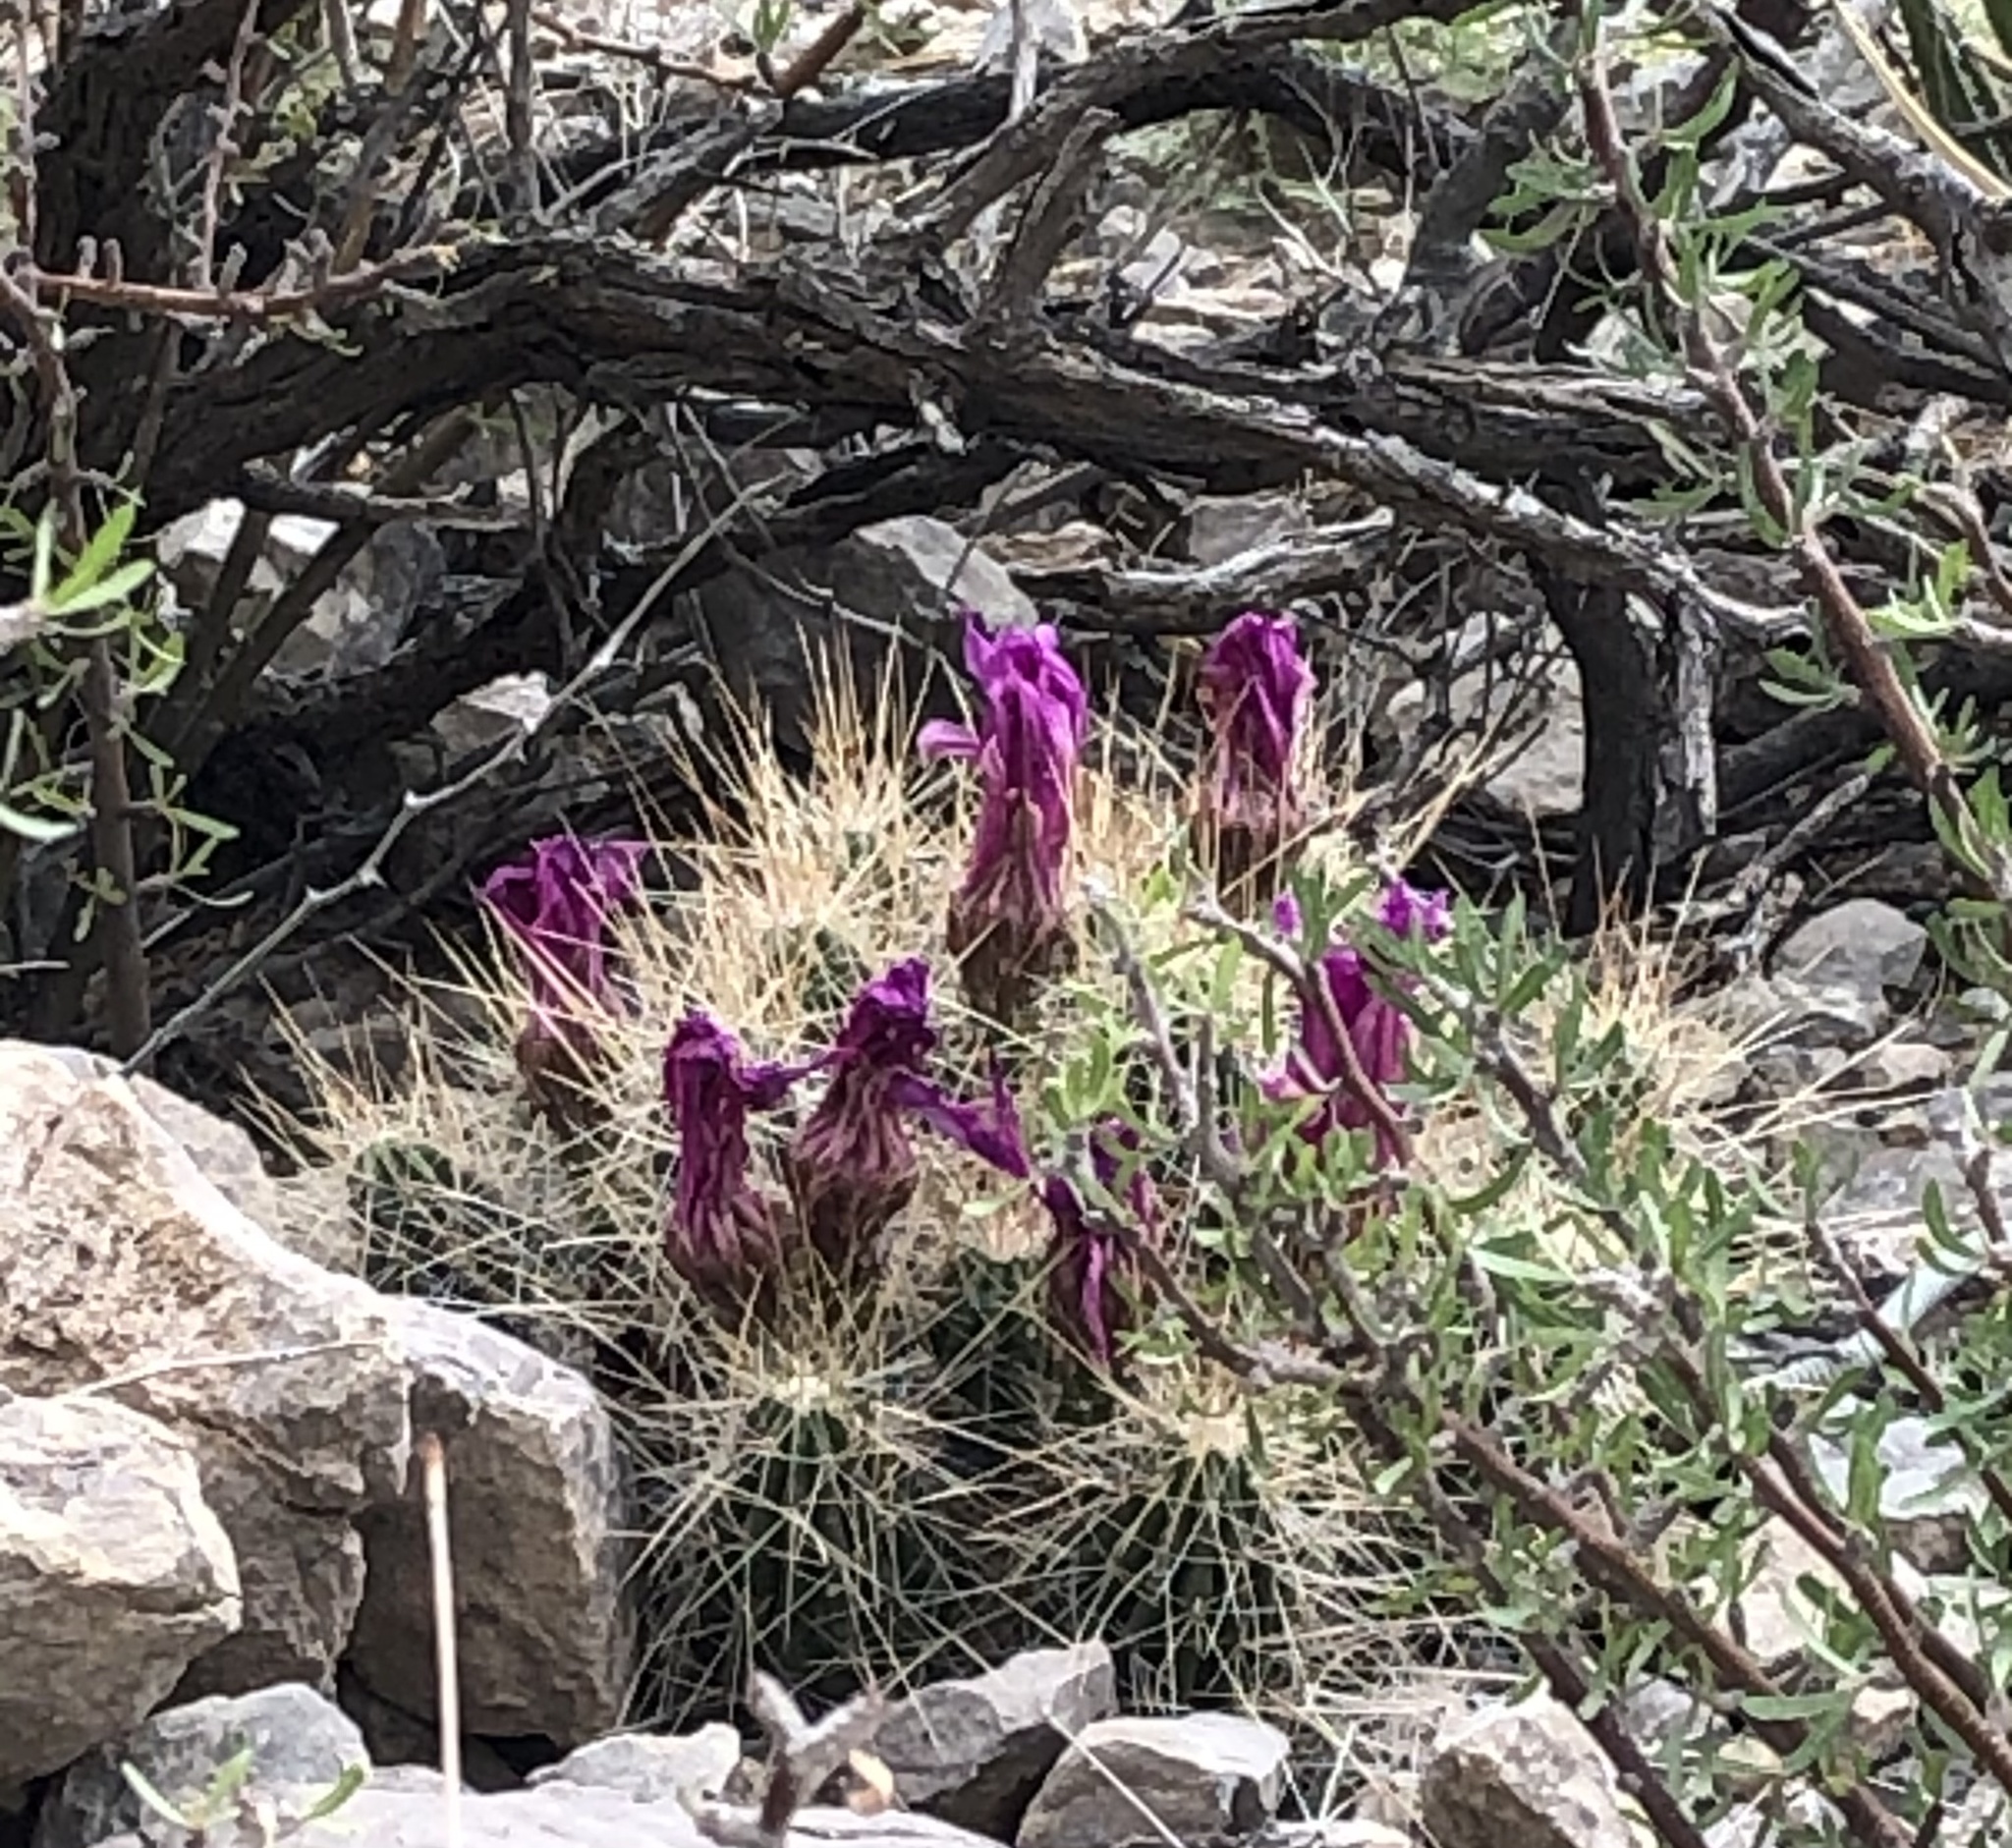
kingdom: Plantae
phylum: Tracheophyta
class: Magnoliopsida
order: Caryophyllales
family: Cactaceae
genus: Echinocereus
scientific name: Echinocereus stramineus
